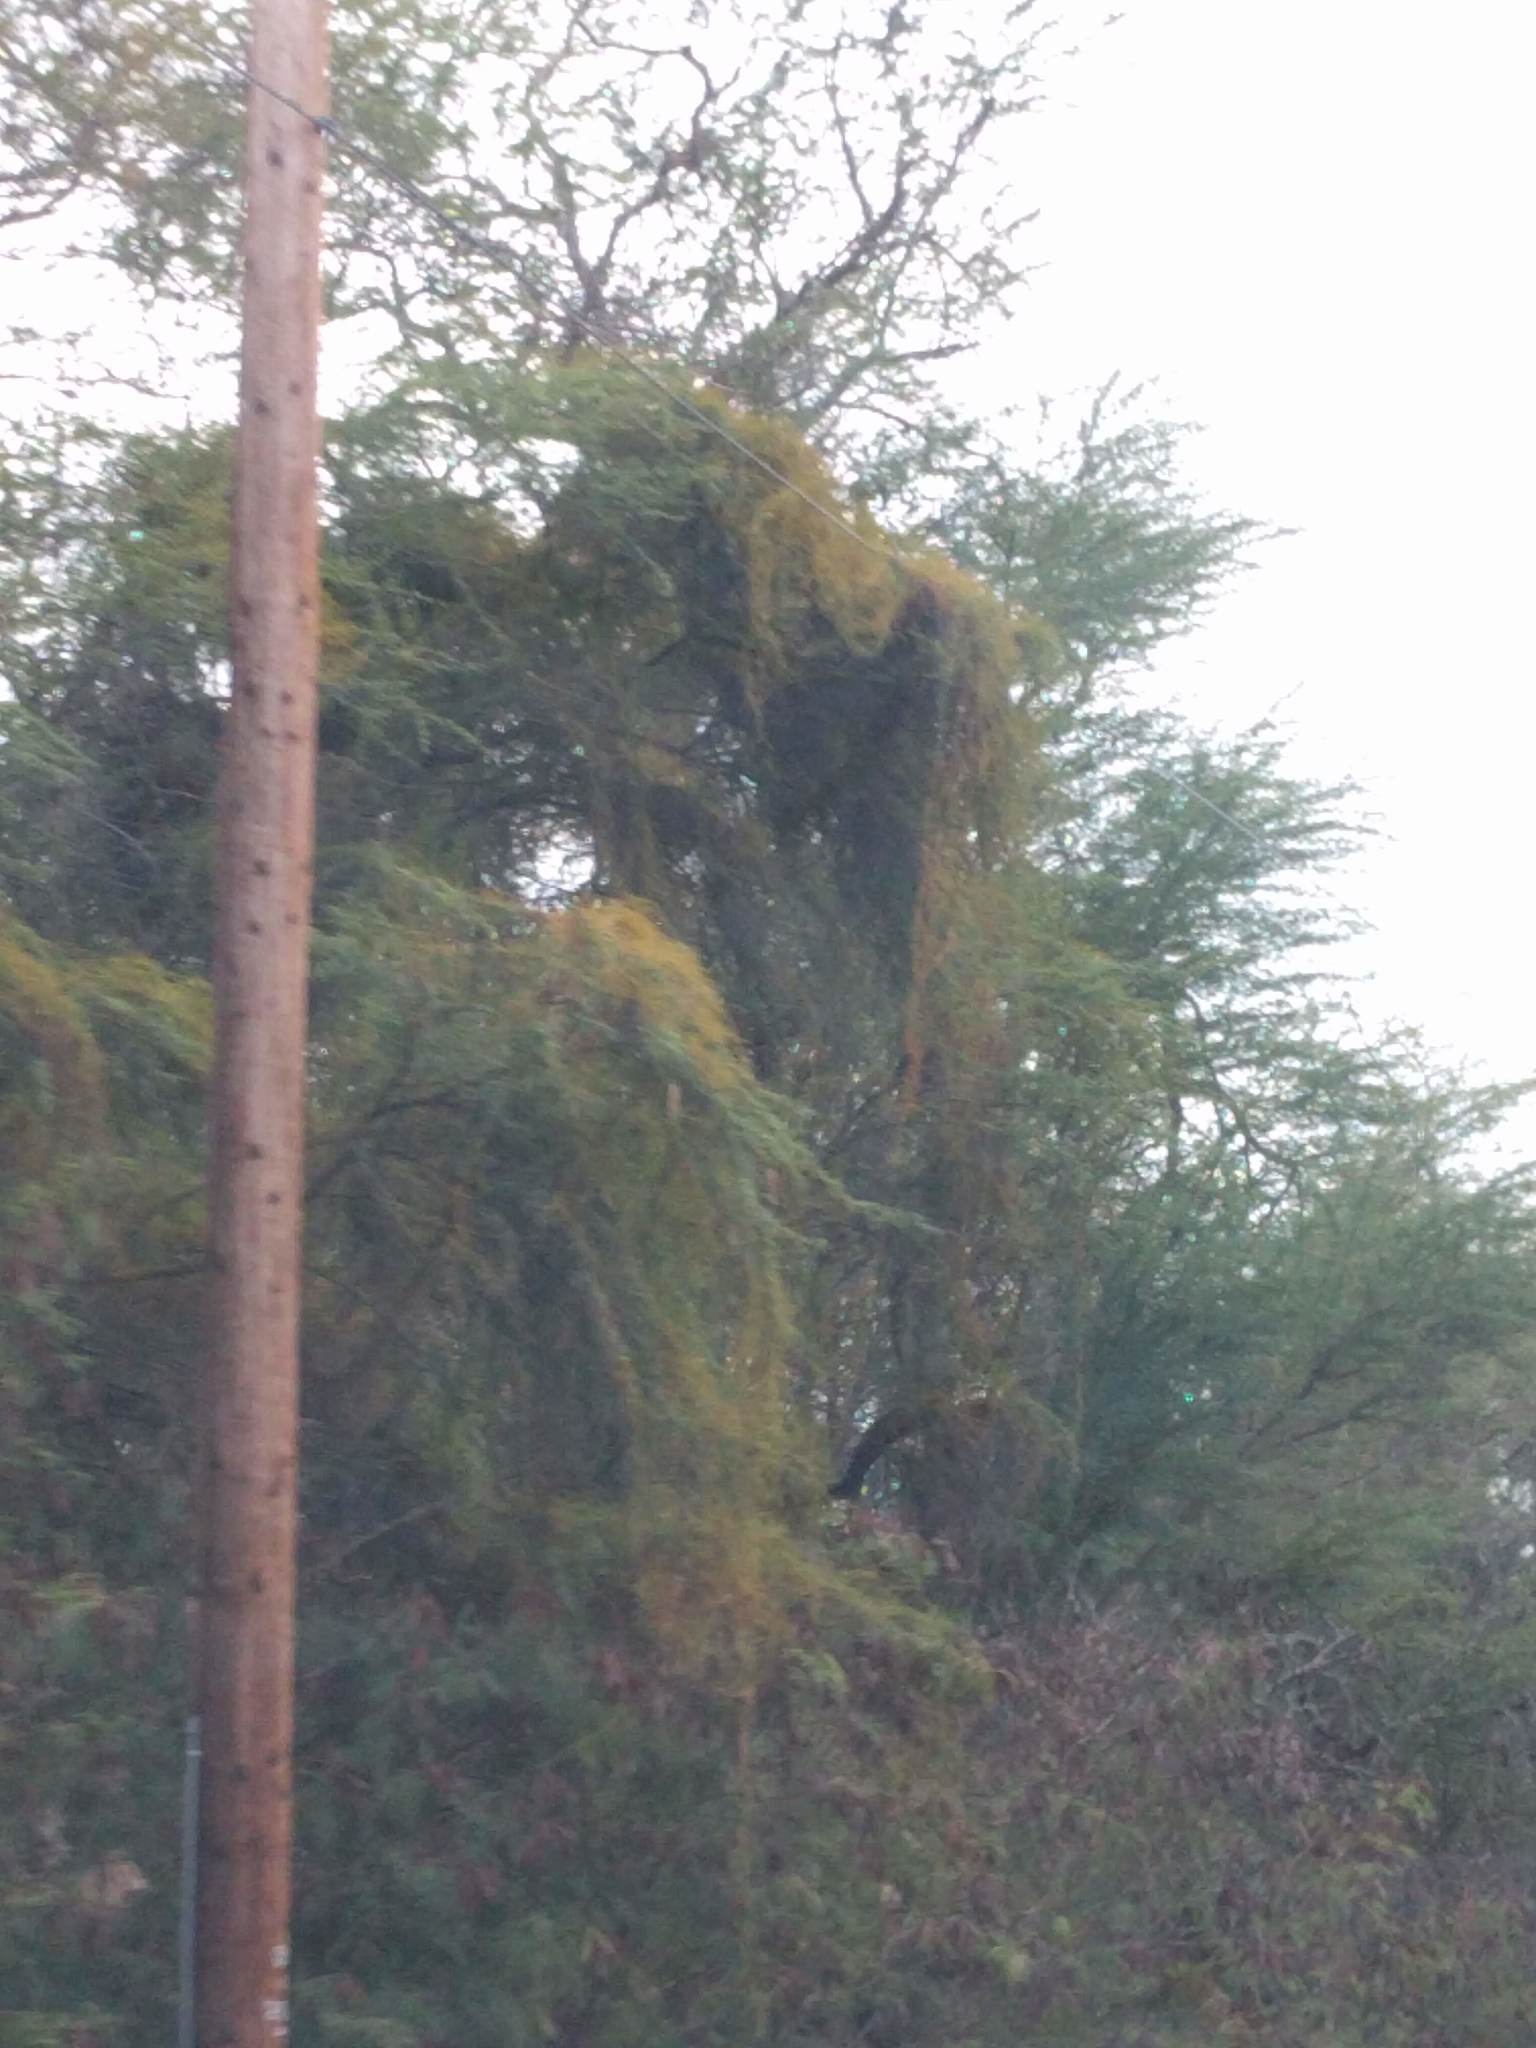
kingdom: Plantae
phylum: Tracheophyta
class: Magnoliopsida
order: Laurales
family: Lauraceae
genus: Cassytha
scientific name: Cassytha filiformis
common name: Dodder-laurel
